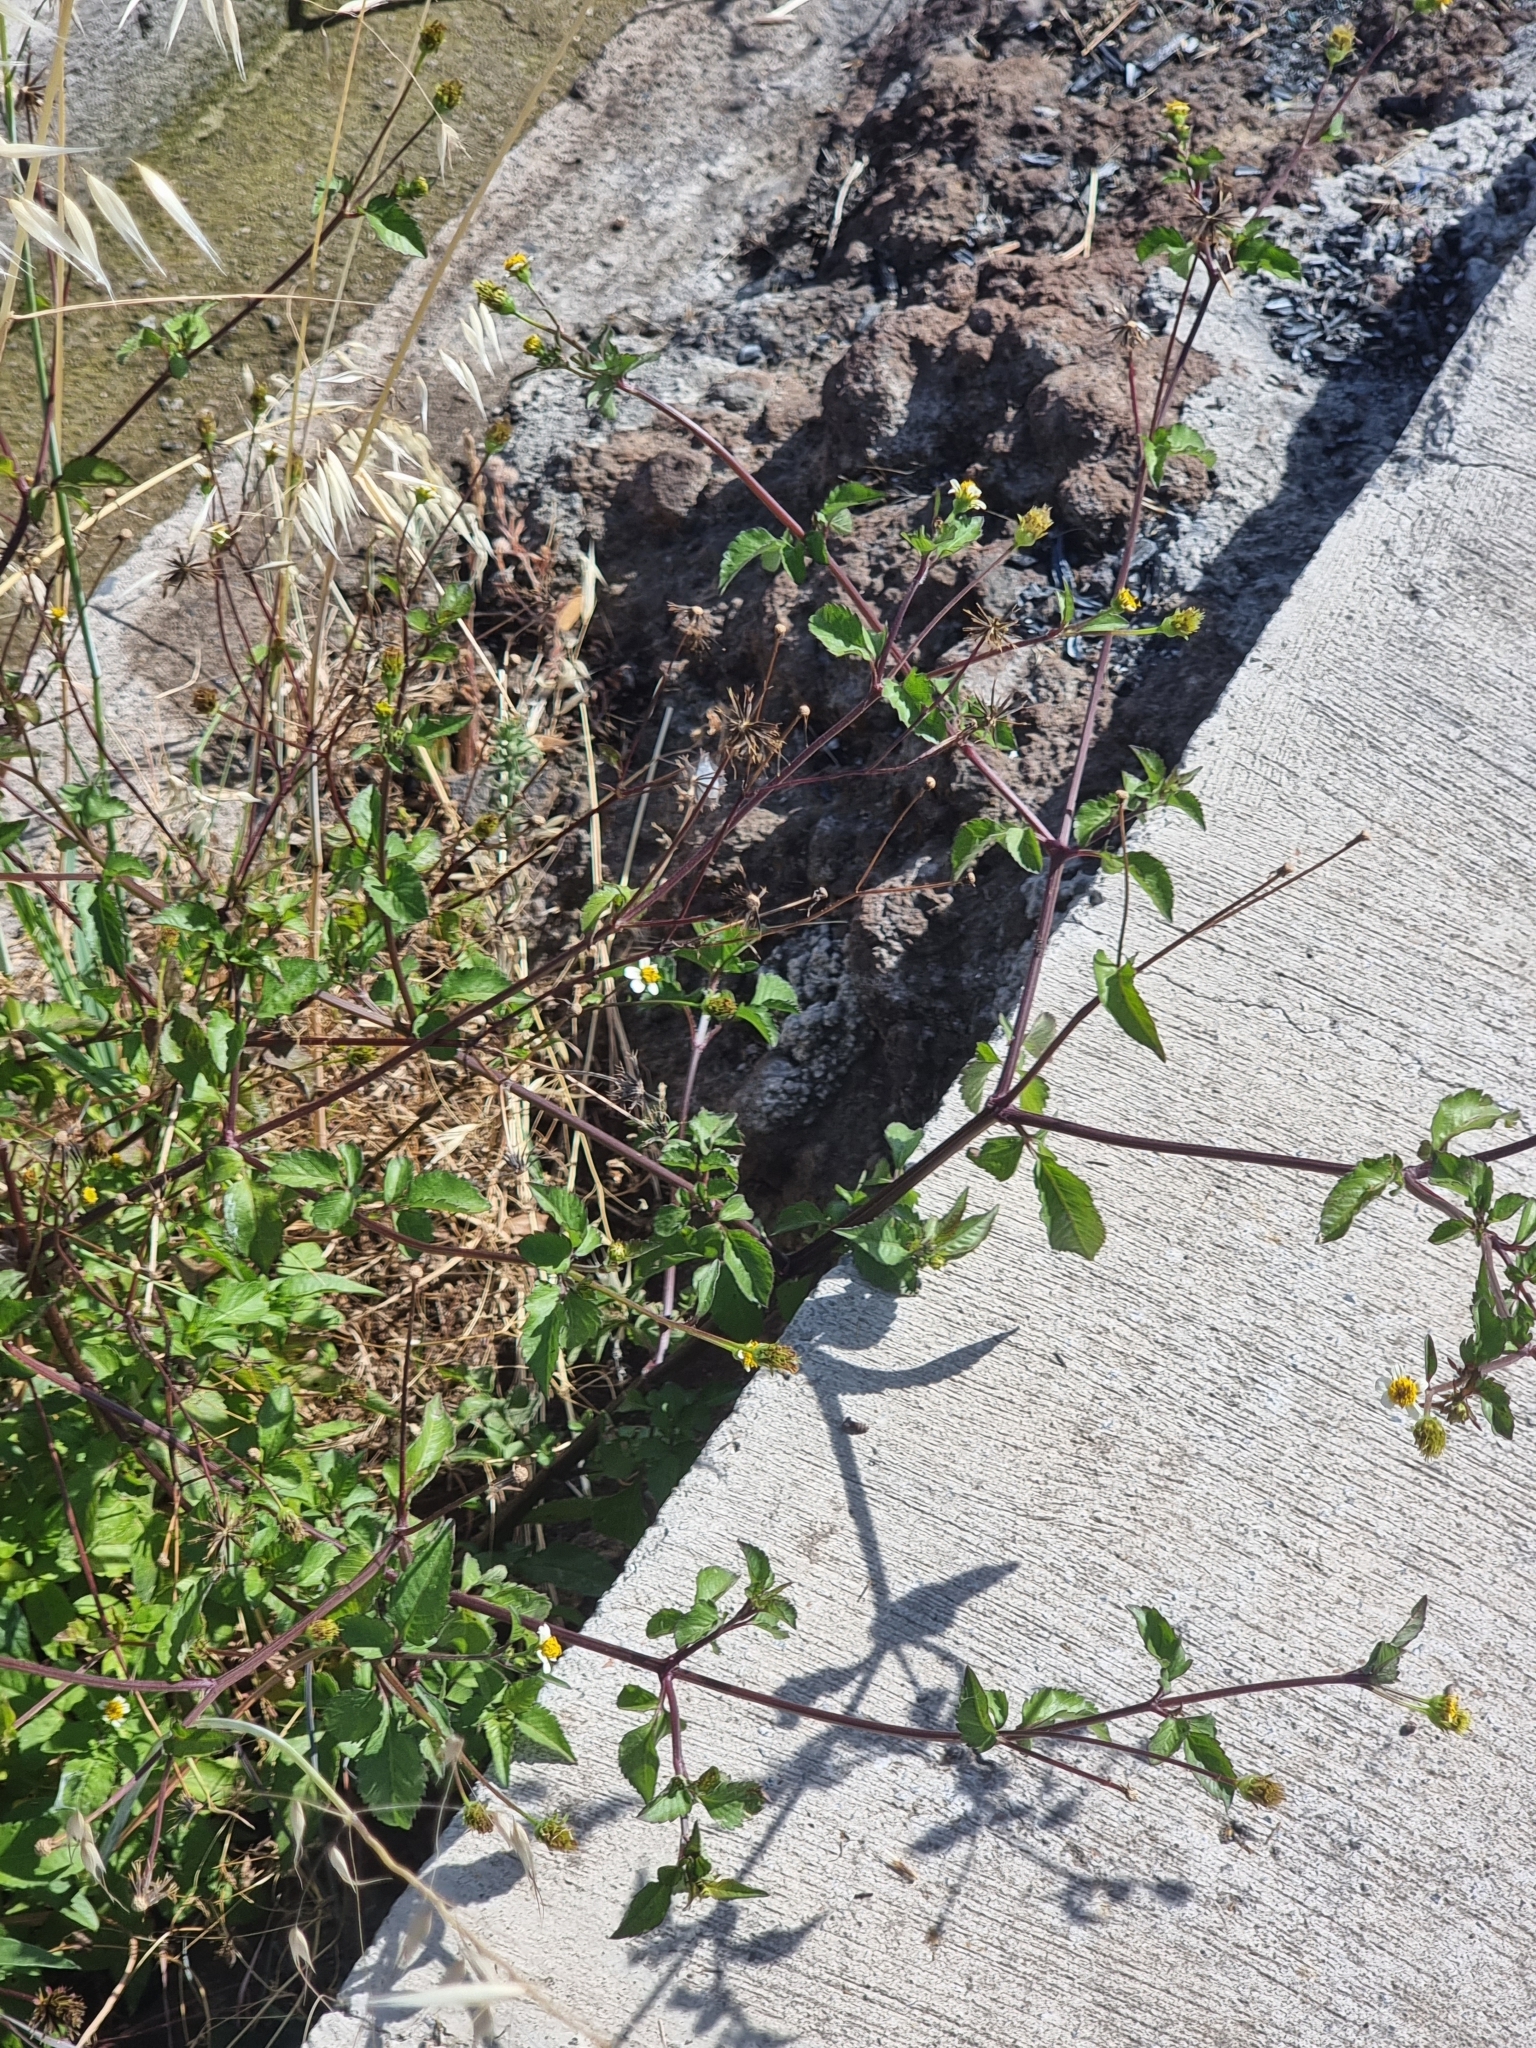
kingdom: Plantae
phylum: Tracheophyta
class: Magnoliopsida
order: Asterales
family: Asteraceae
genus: Bidens
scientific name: Bidens pilosa
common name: Black-jack
